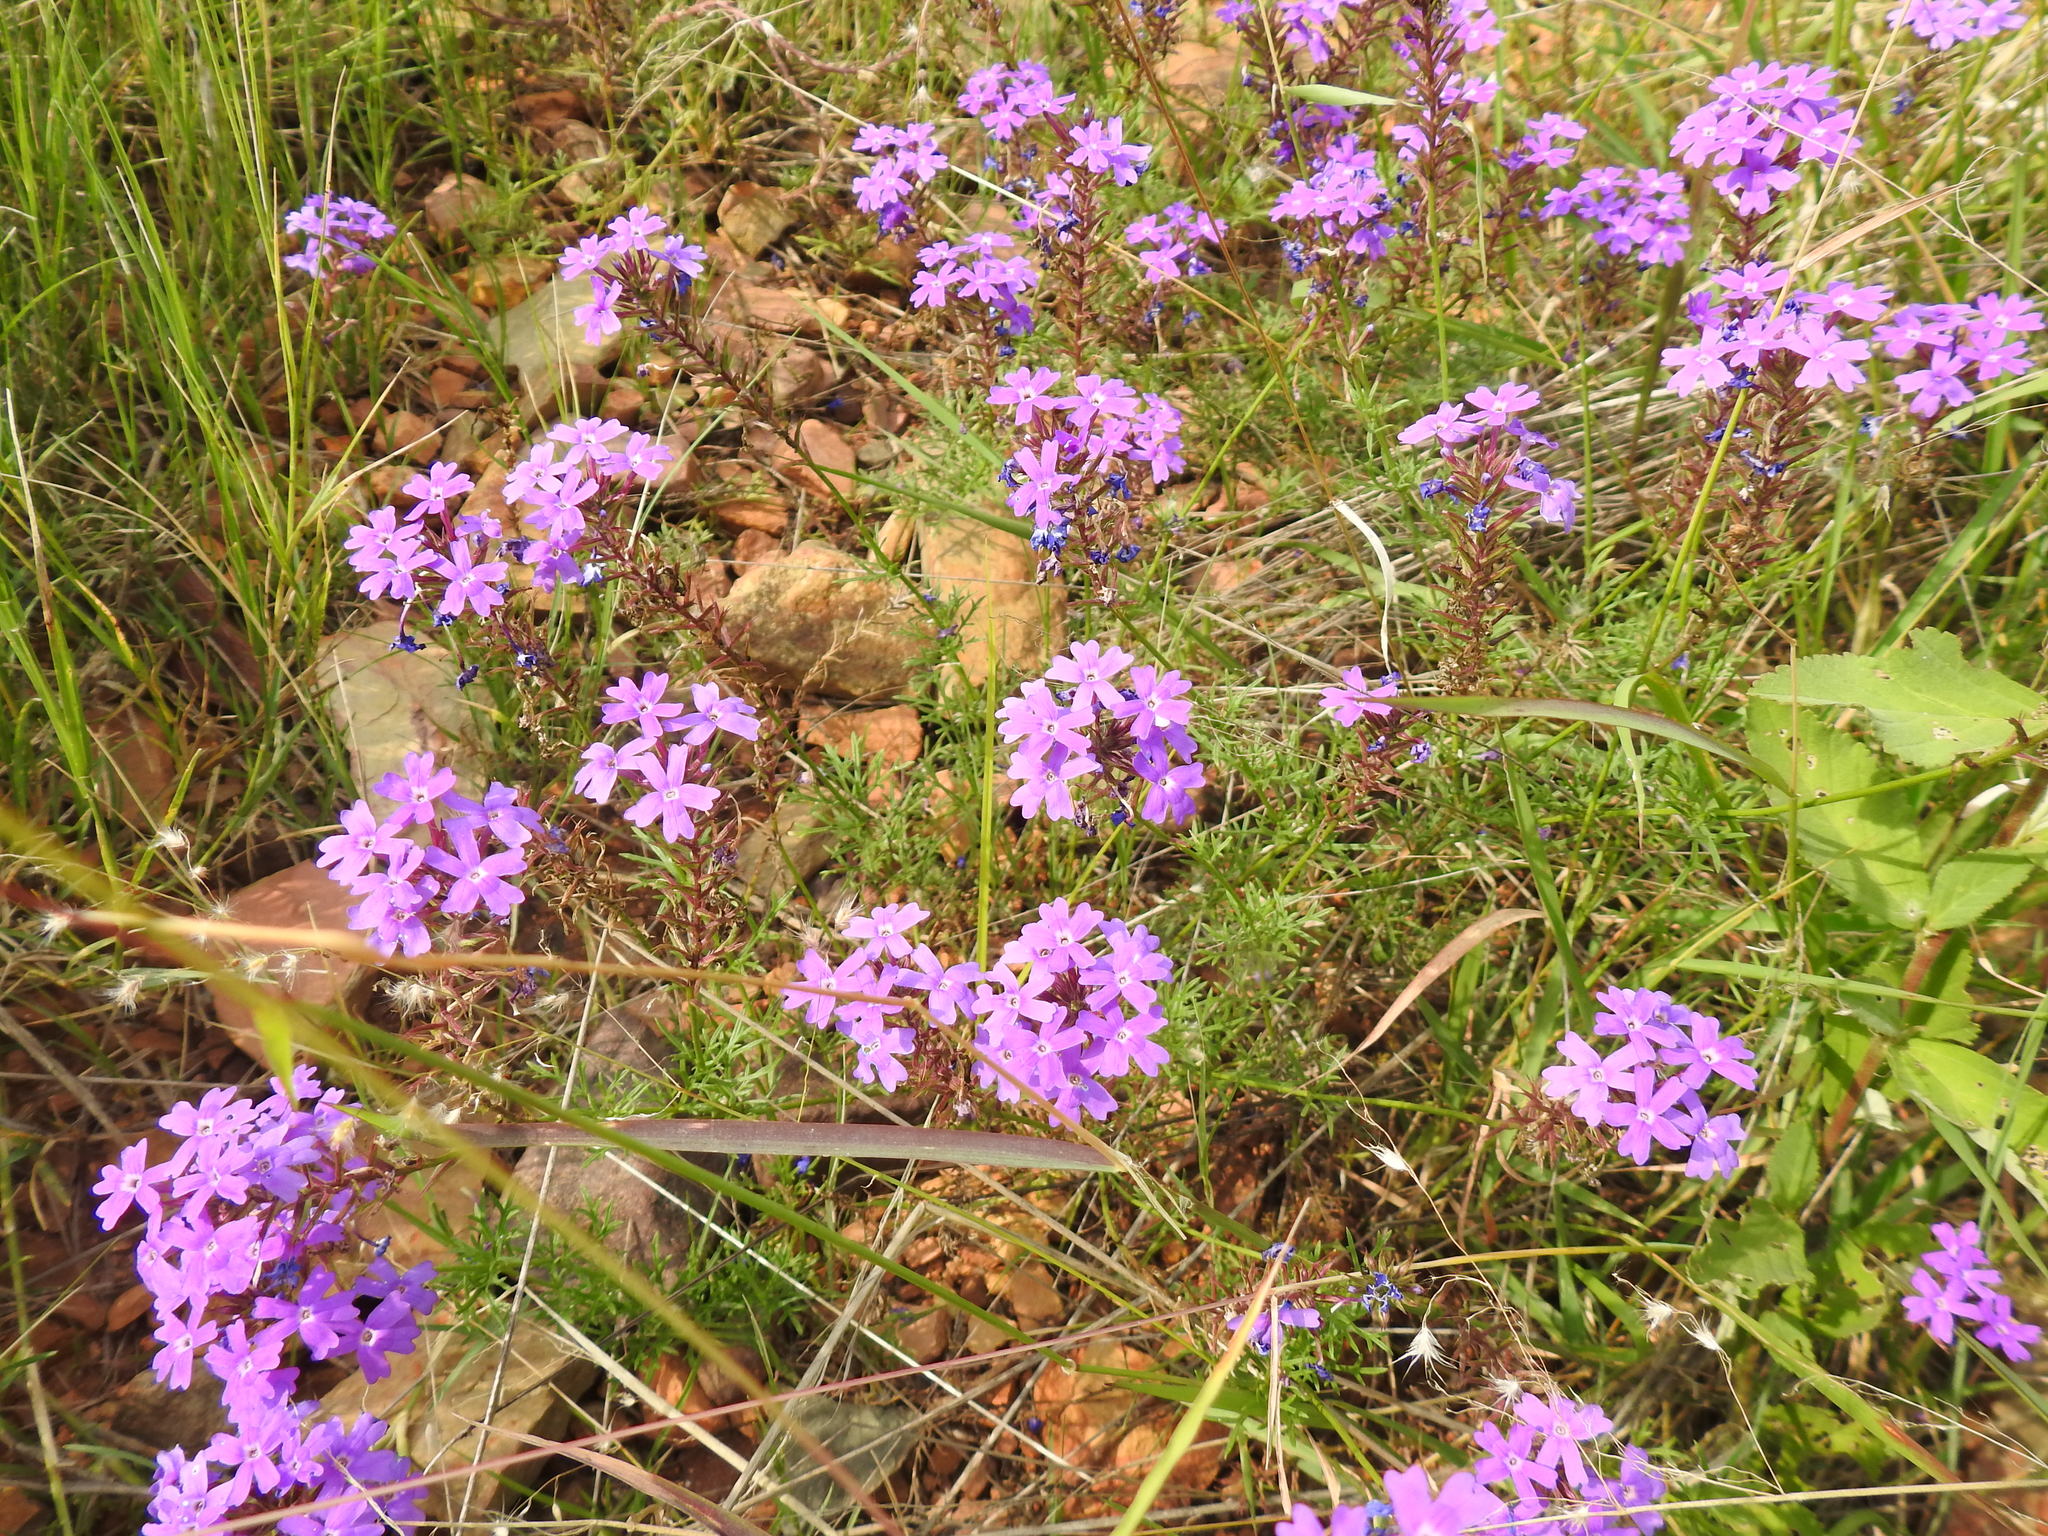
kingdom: Plantae
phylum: Tracheophyta
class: Magnoliopsida
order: Lamiales
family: Verbenaceae
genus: Verbena
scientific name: Verbena aristigera
